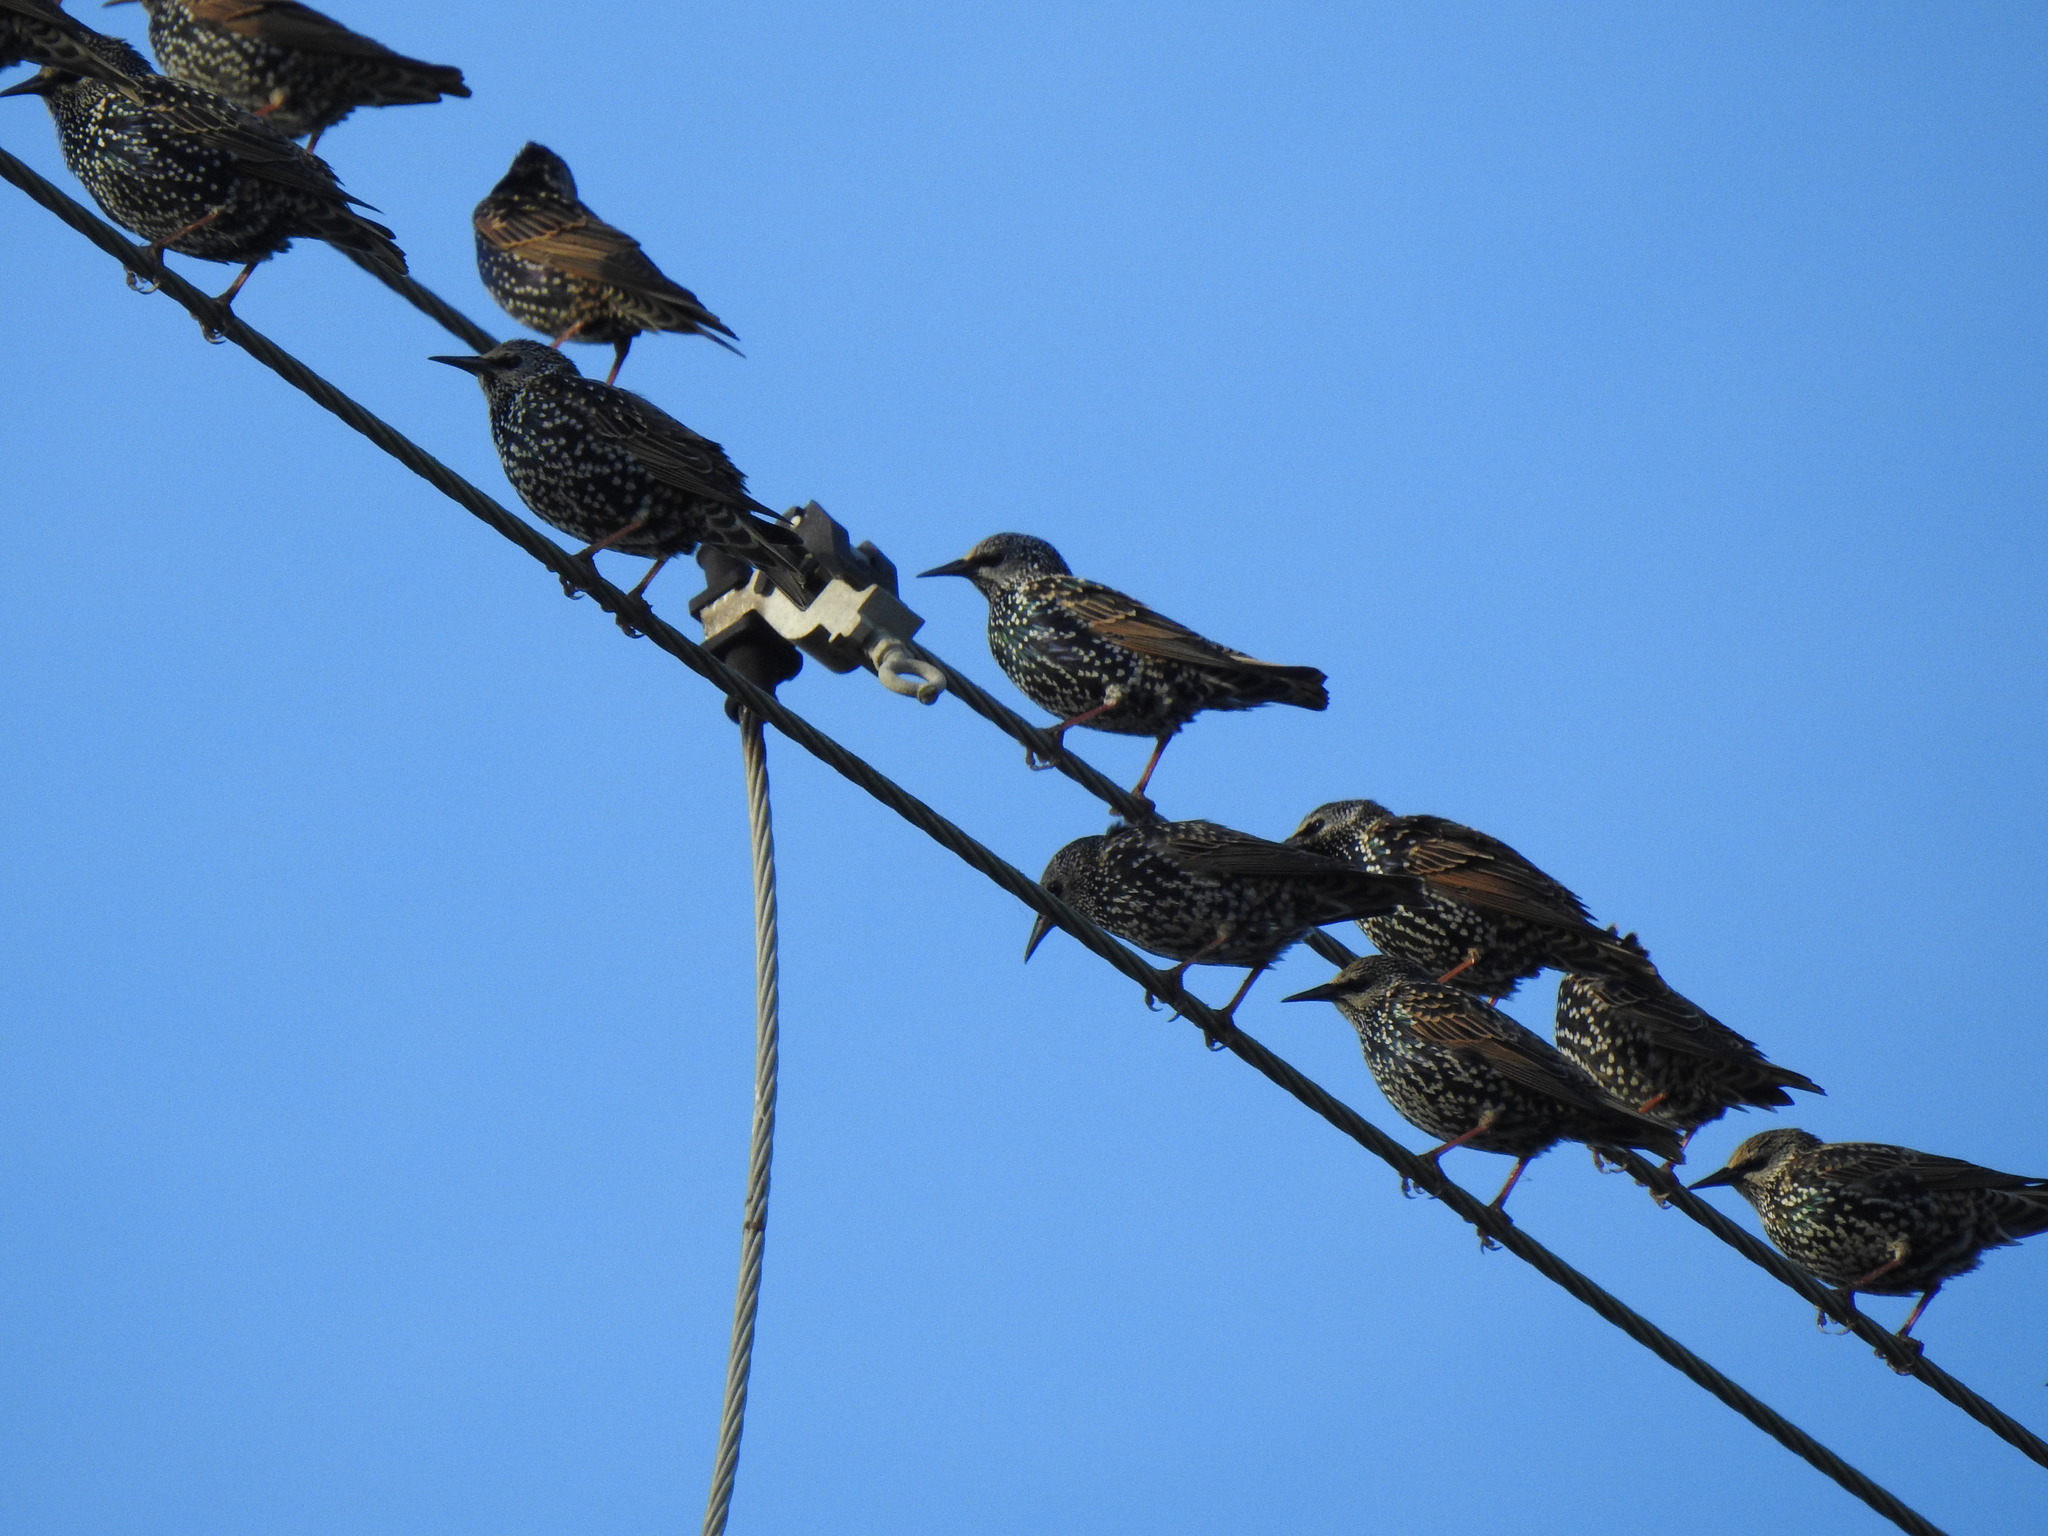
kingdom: Animalia
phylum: Chordata
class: Aves
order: Passeriformes
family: Sturnidae
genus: Sturnus
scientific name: Sturnus vulgaris
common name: Common starling
